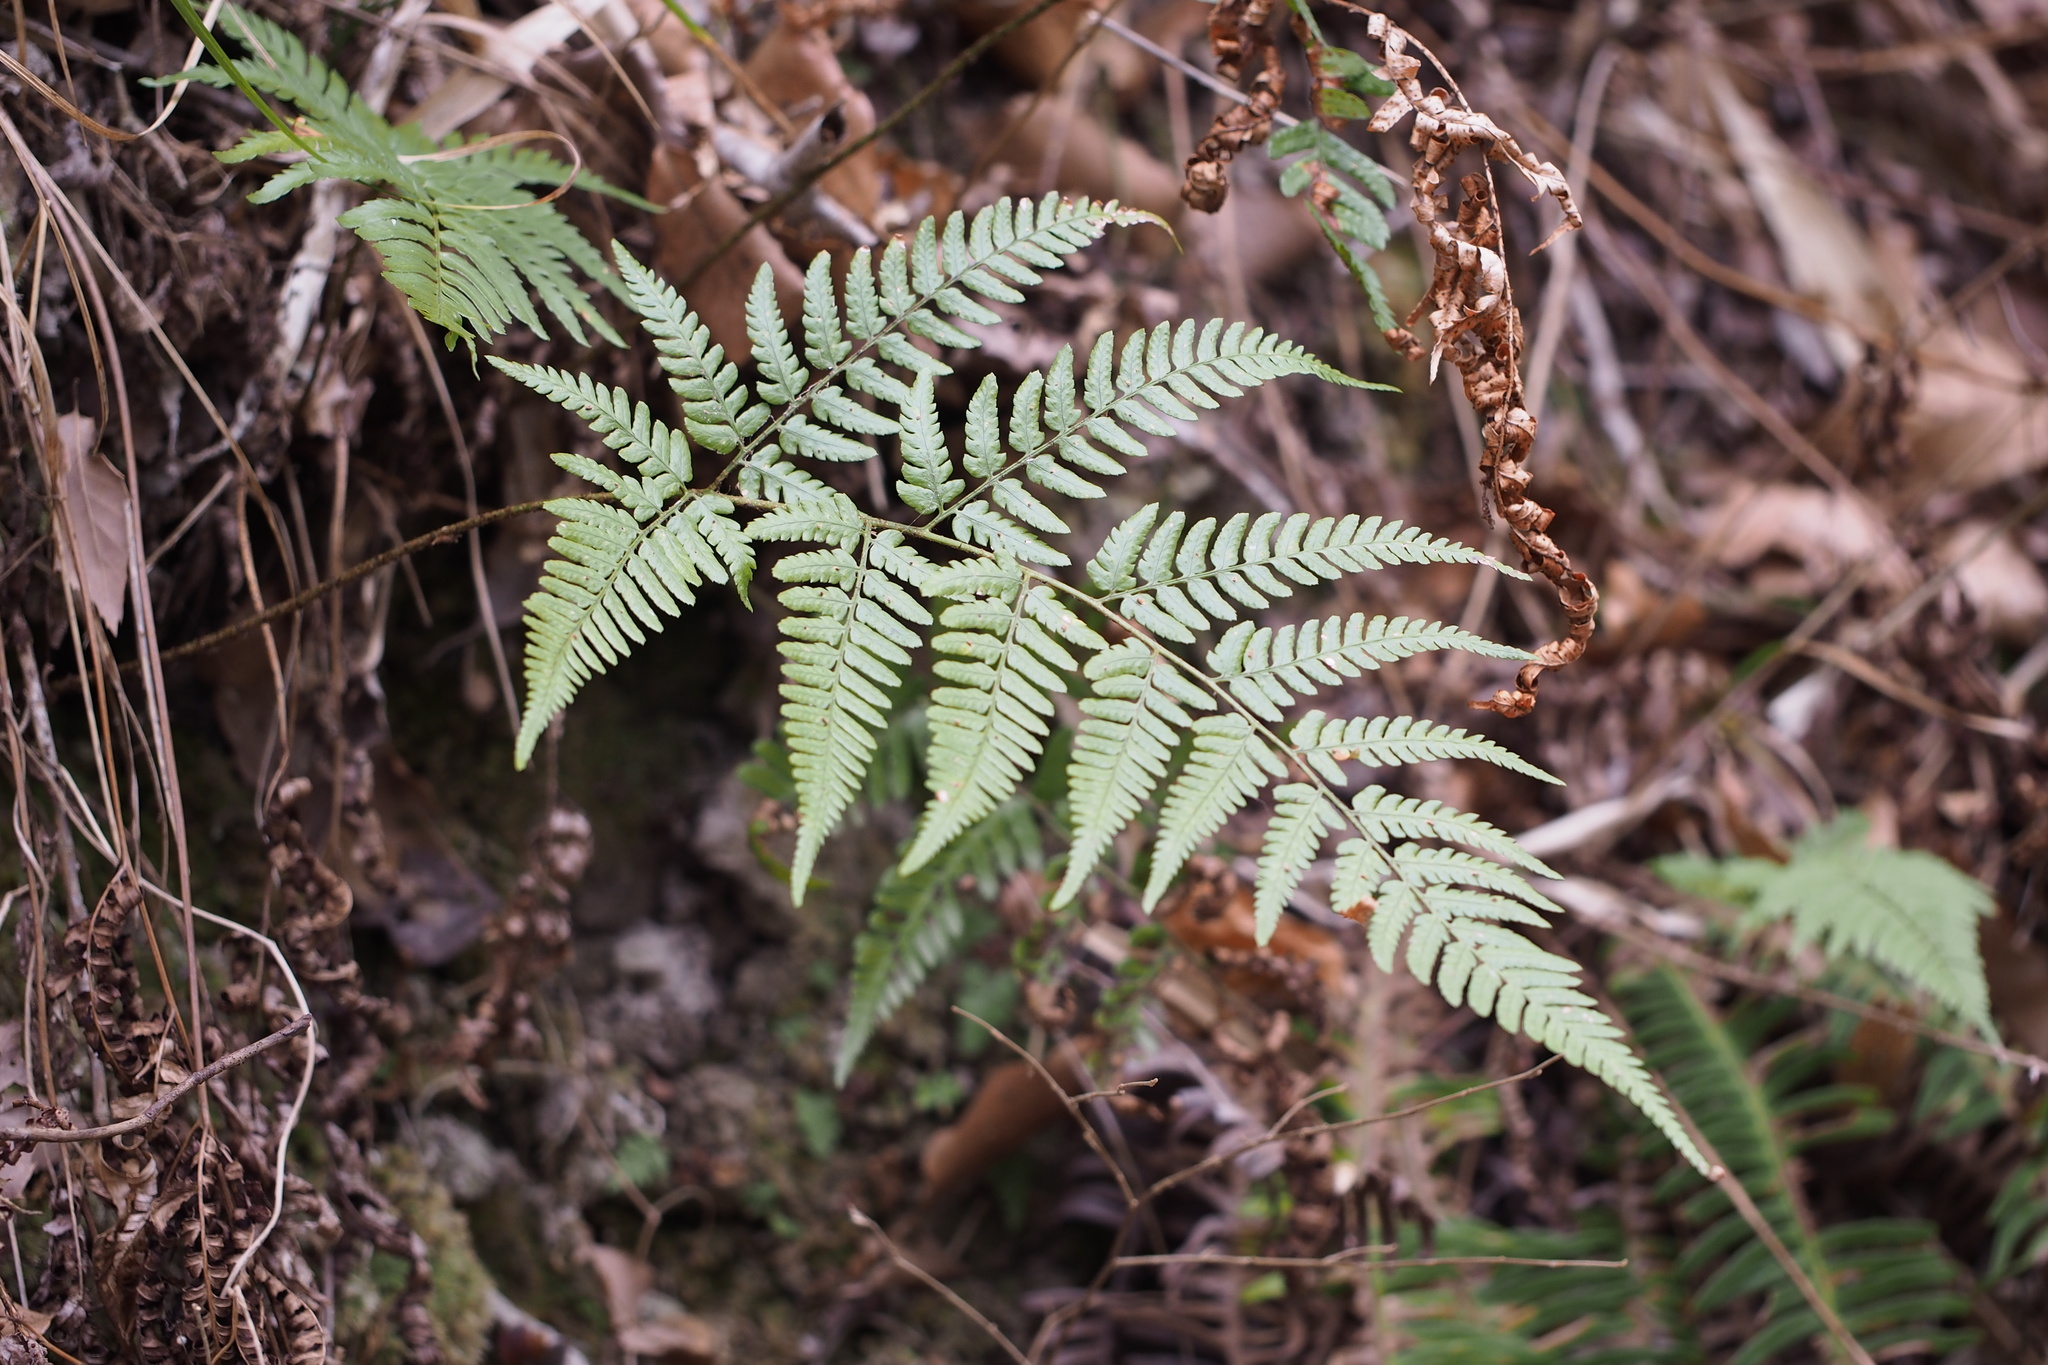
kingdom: Plantae
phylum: Tracheophyta
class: Polypodiopsida
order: Polypodiales
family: Dryopteridaceae
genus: Dryopteris
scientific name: Dryopteris sacrosancta
